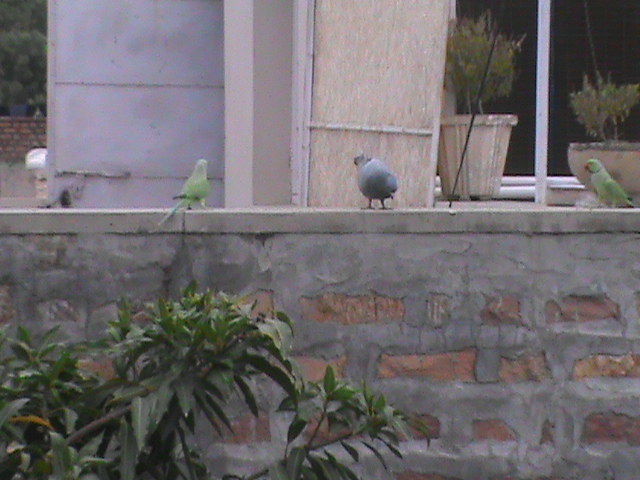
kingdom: Animalia
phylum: Chordata
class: Aves
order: Columbiformes
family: Columbidae
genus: Columba
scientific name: Columba livia
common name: Rock pigeon
